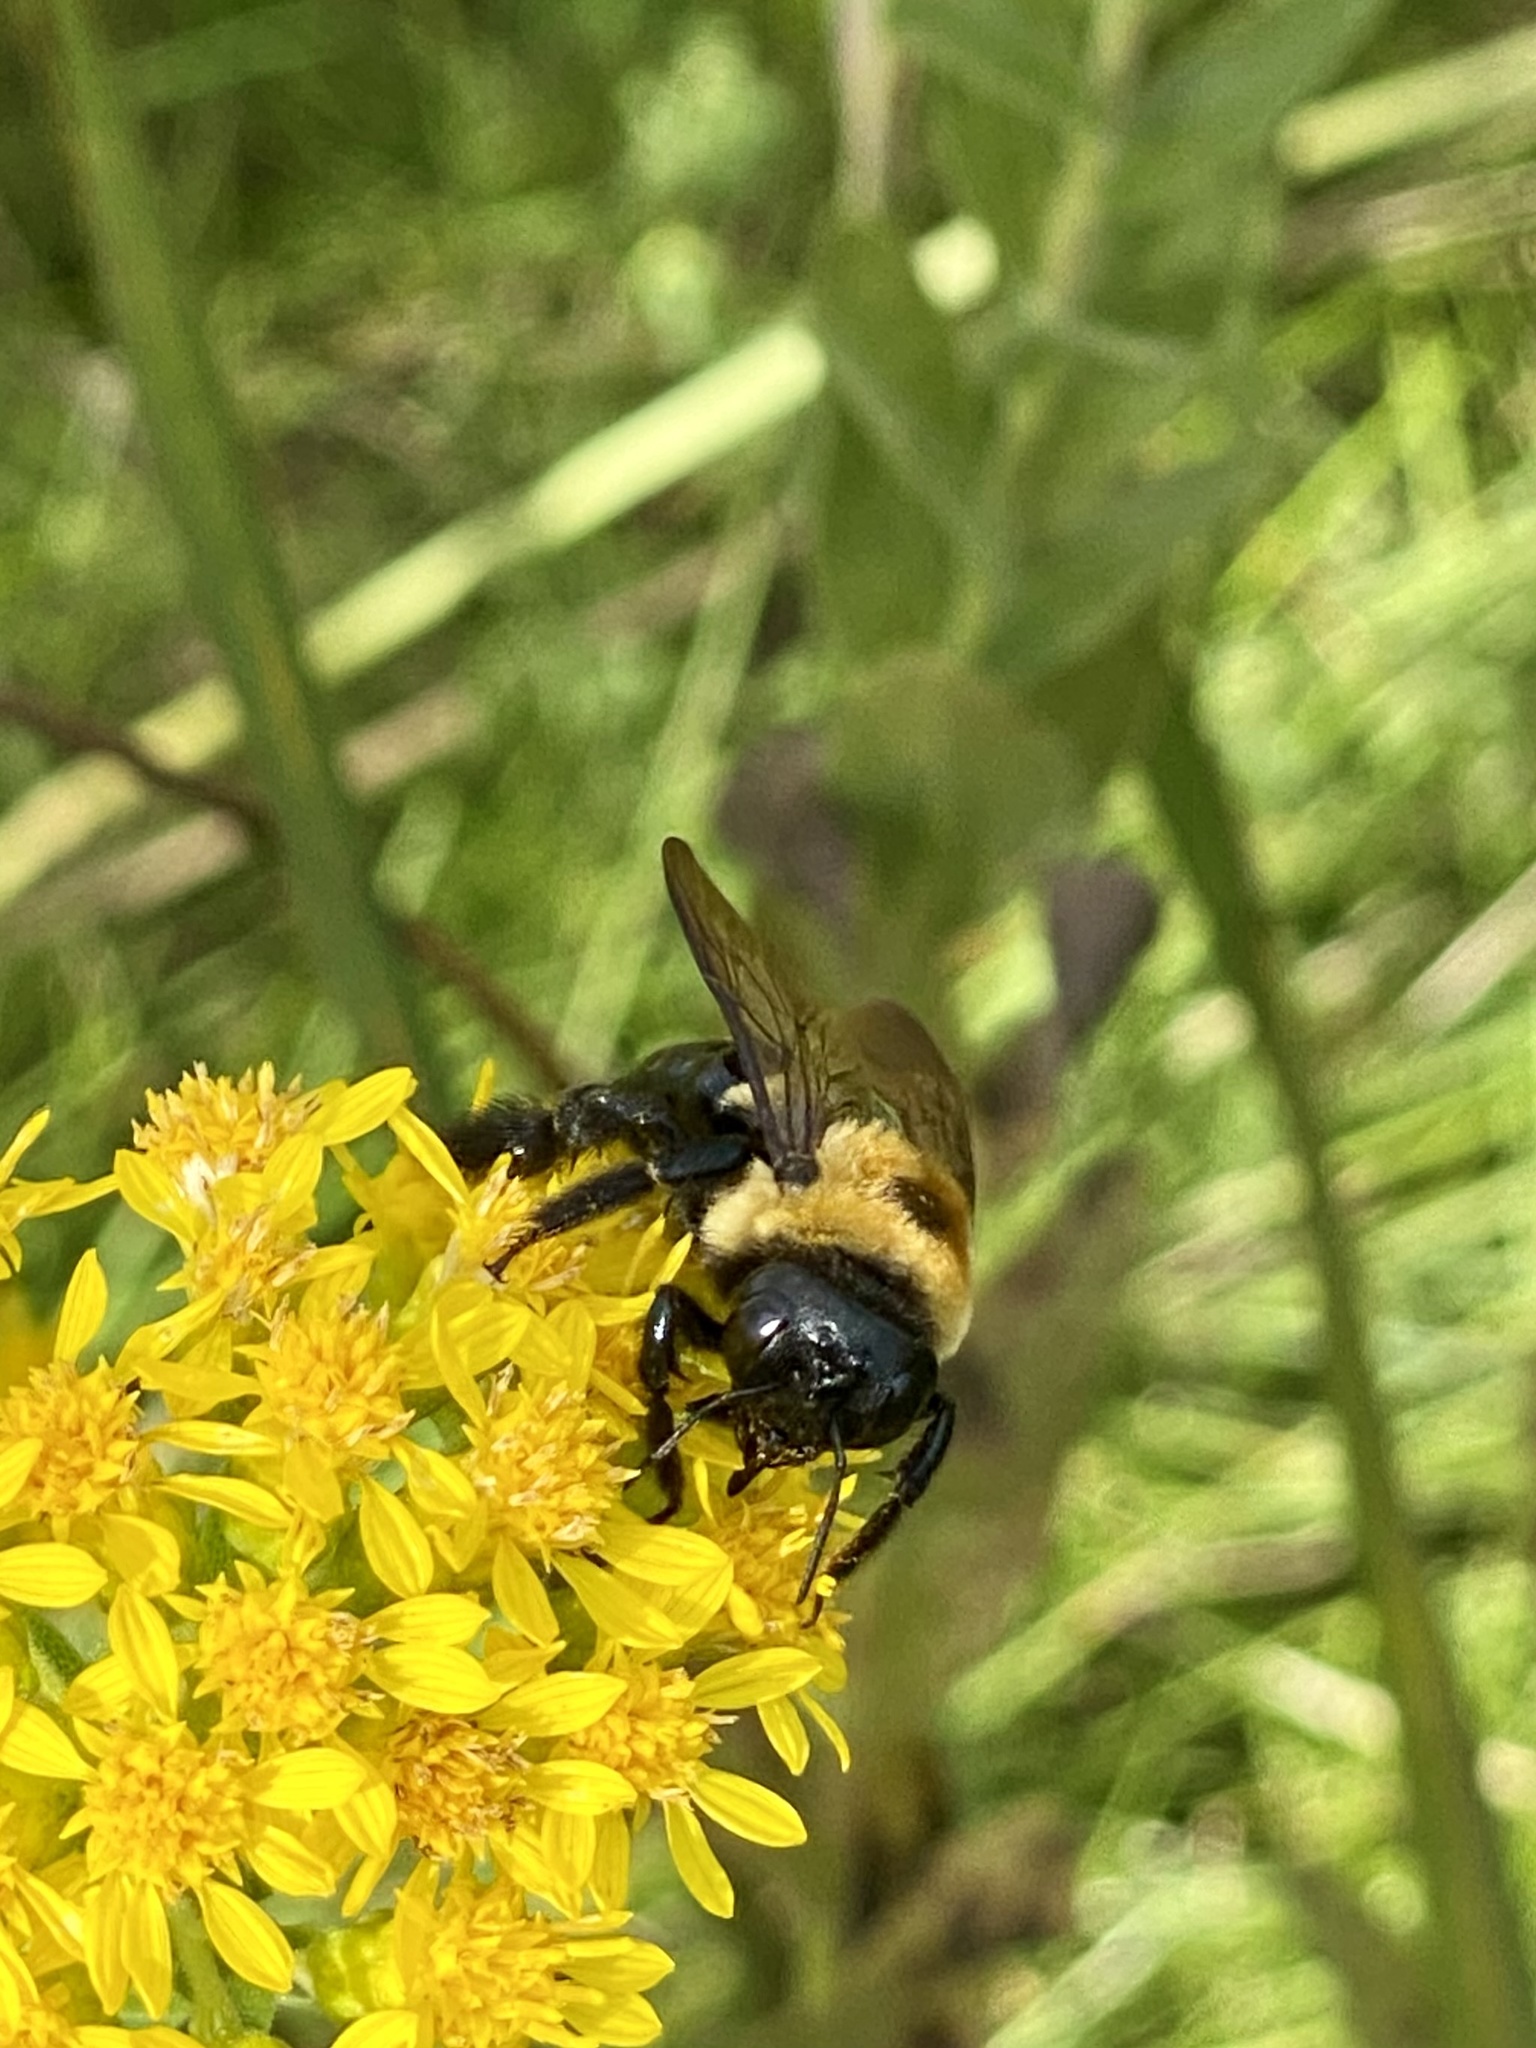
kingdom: Animalia
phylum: Arthropoda
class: Insecta
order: Hymenoptera
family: Apidae
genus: Xylocopa
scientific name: Xylocopa virginica
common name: Carpenter bee
